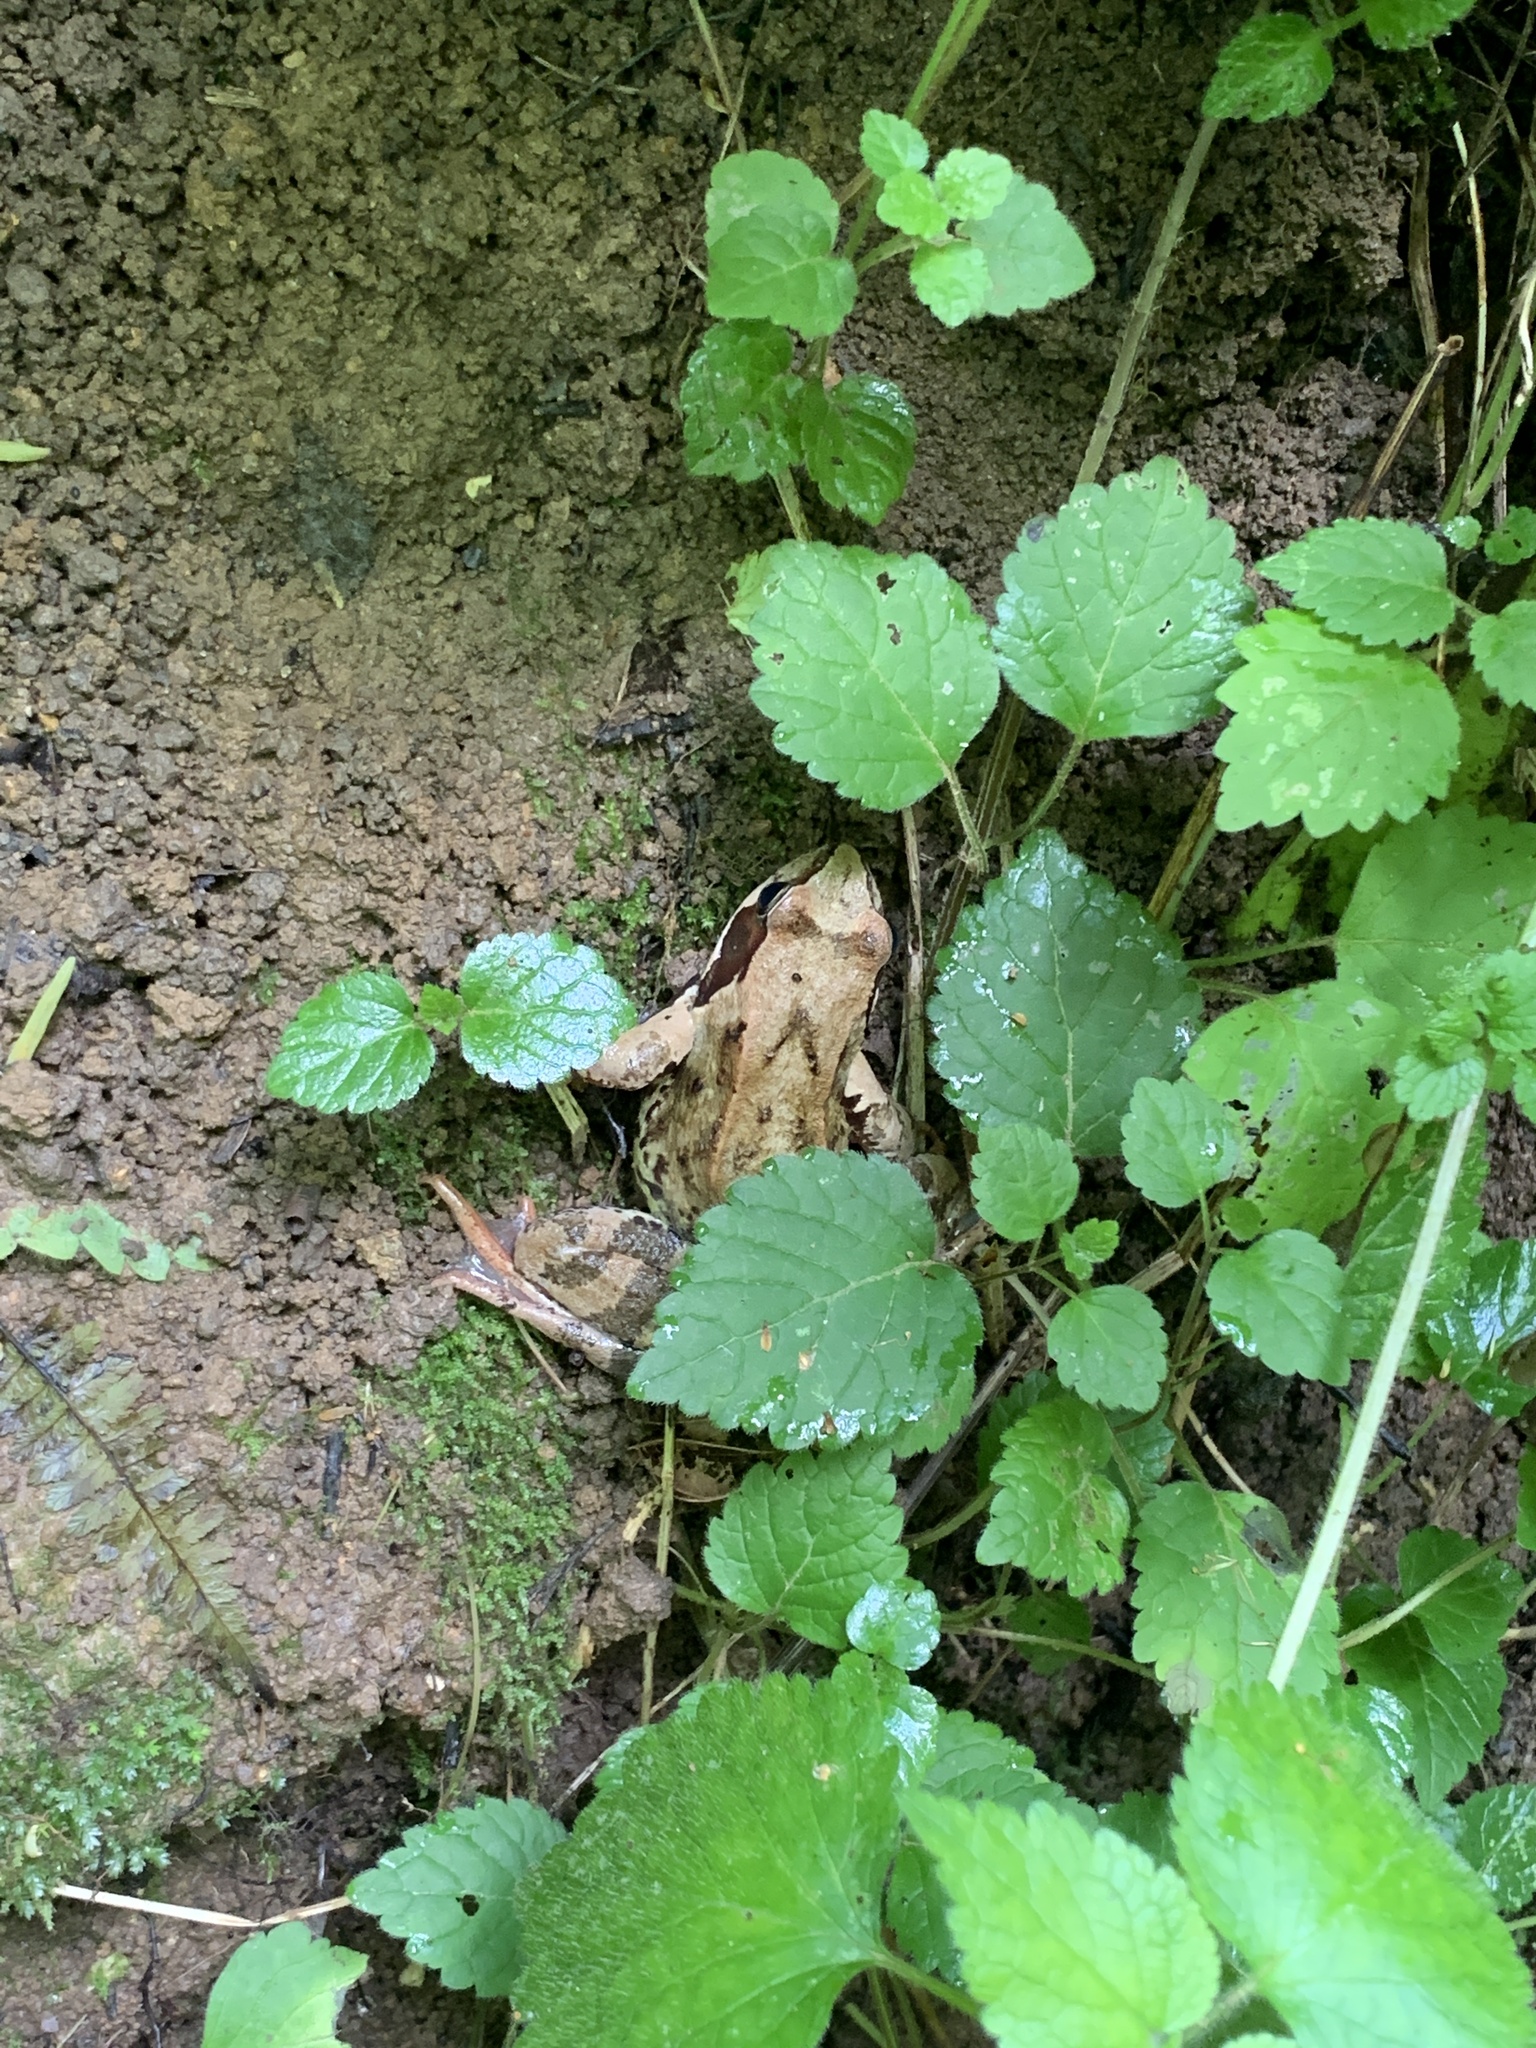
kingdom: Animalia
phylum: Chordata
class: Amphibia
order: Anura
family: Ranidae
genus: Rana
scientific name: Rana temporaria
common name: Common frog
